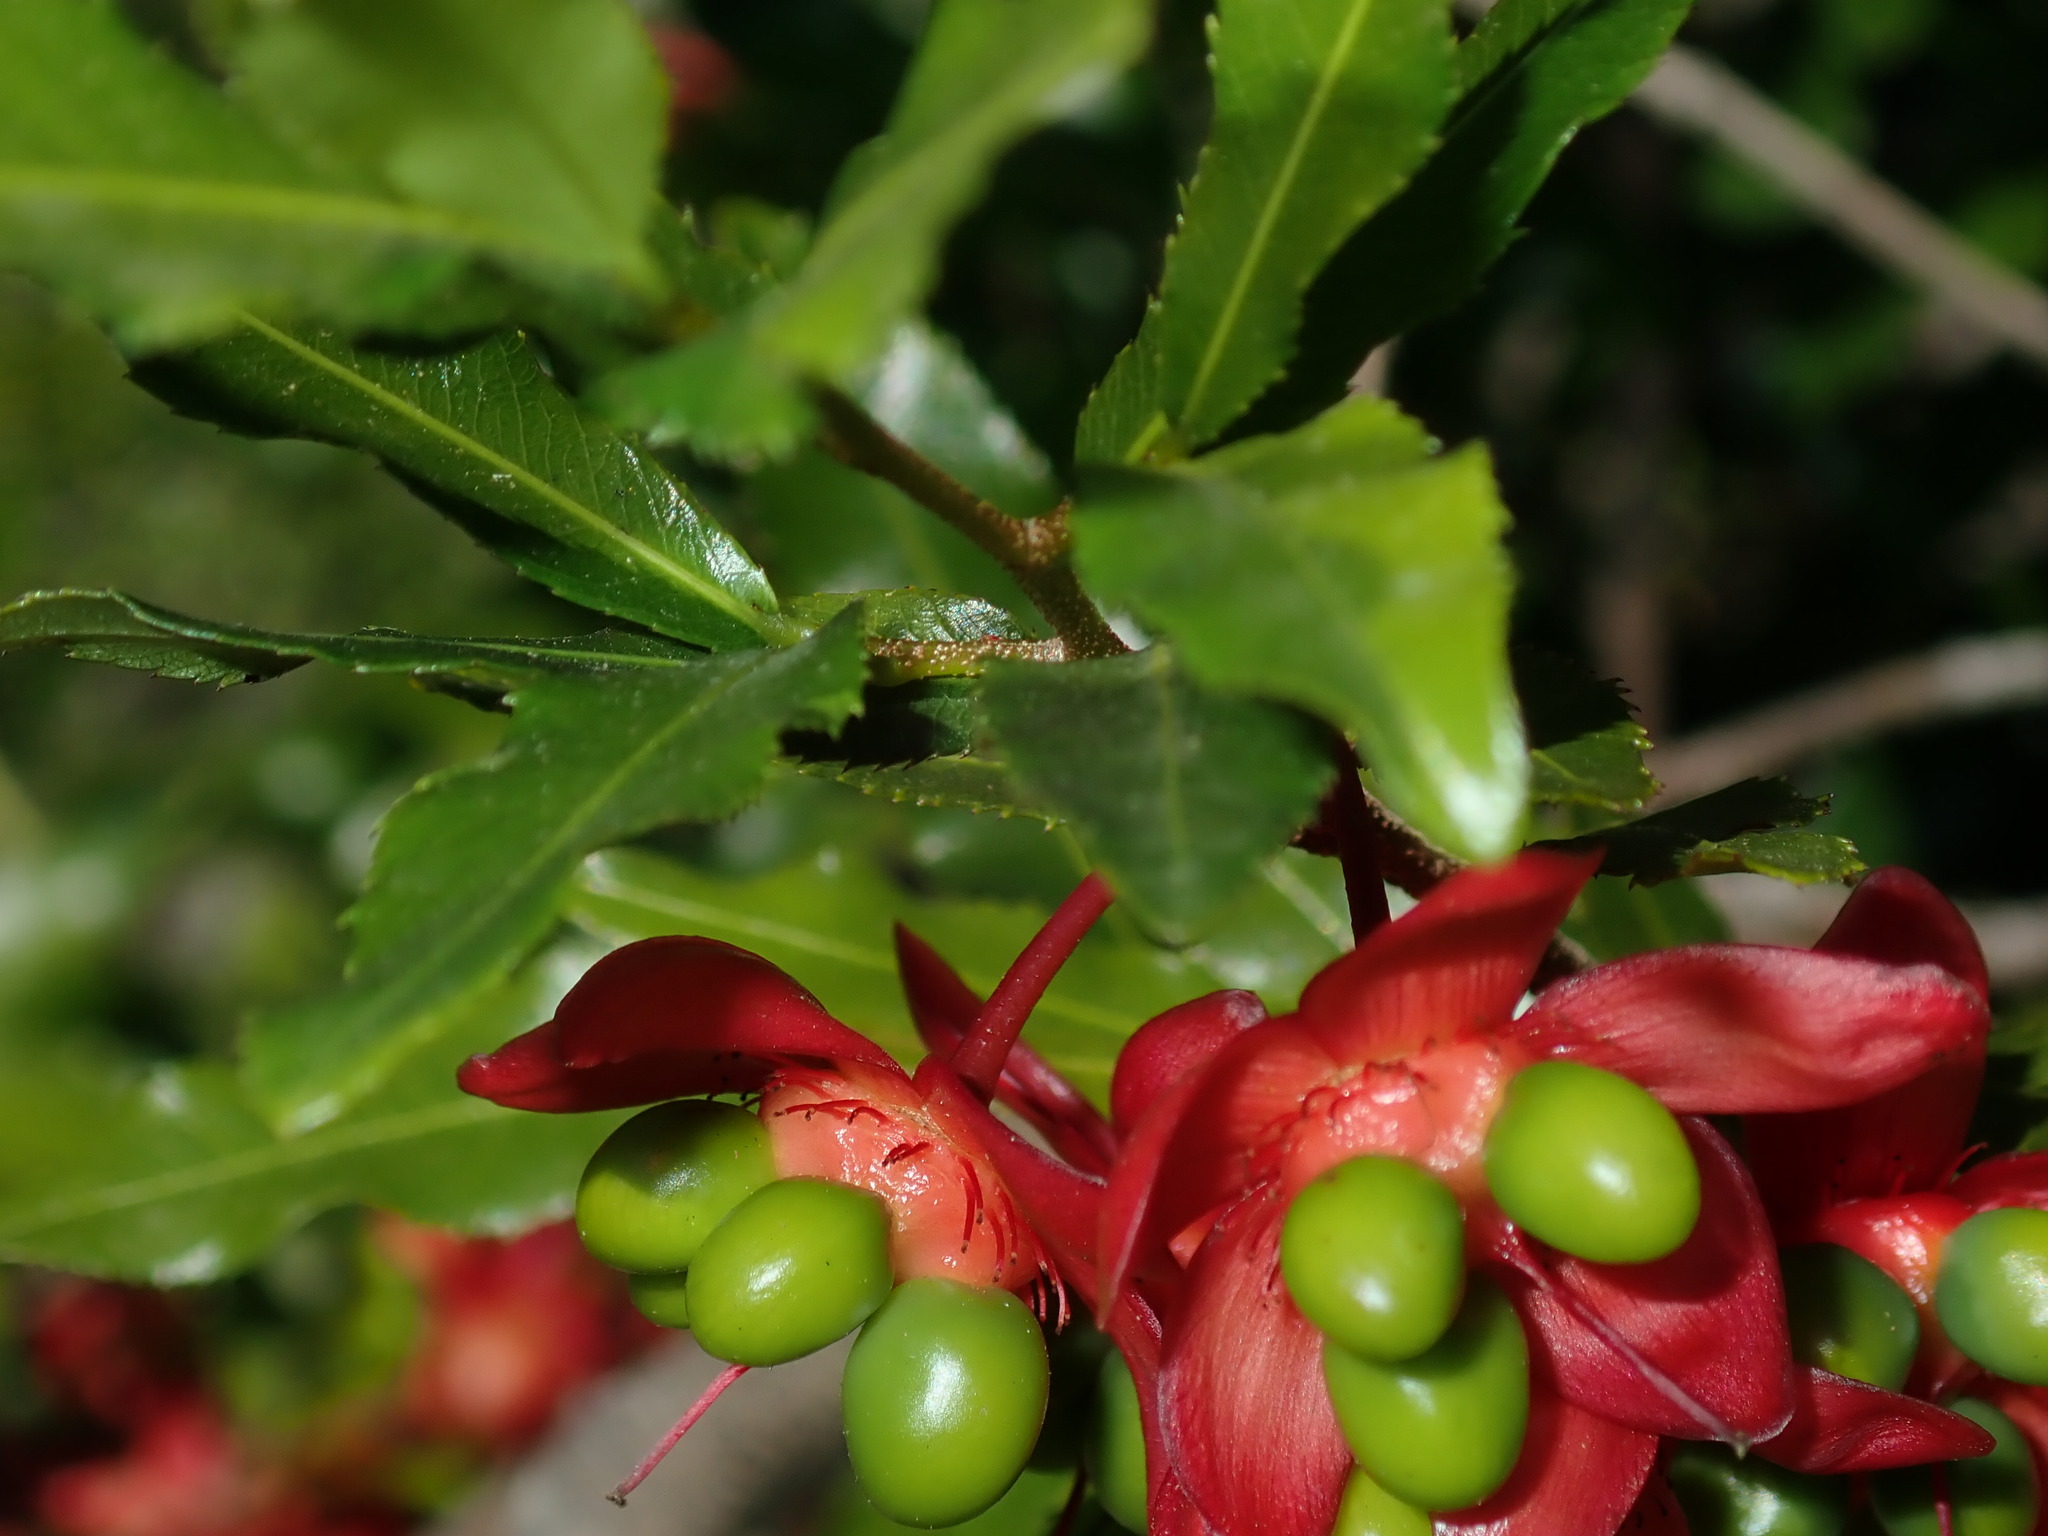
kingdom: Plantae
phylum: Tracheophyta
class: Magnoliopsida
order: Malpighiales
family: Ochnaceae
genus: Ochna
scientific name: Ochna serrulata
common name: Mickey mouse plant
